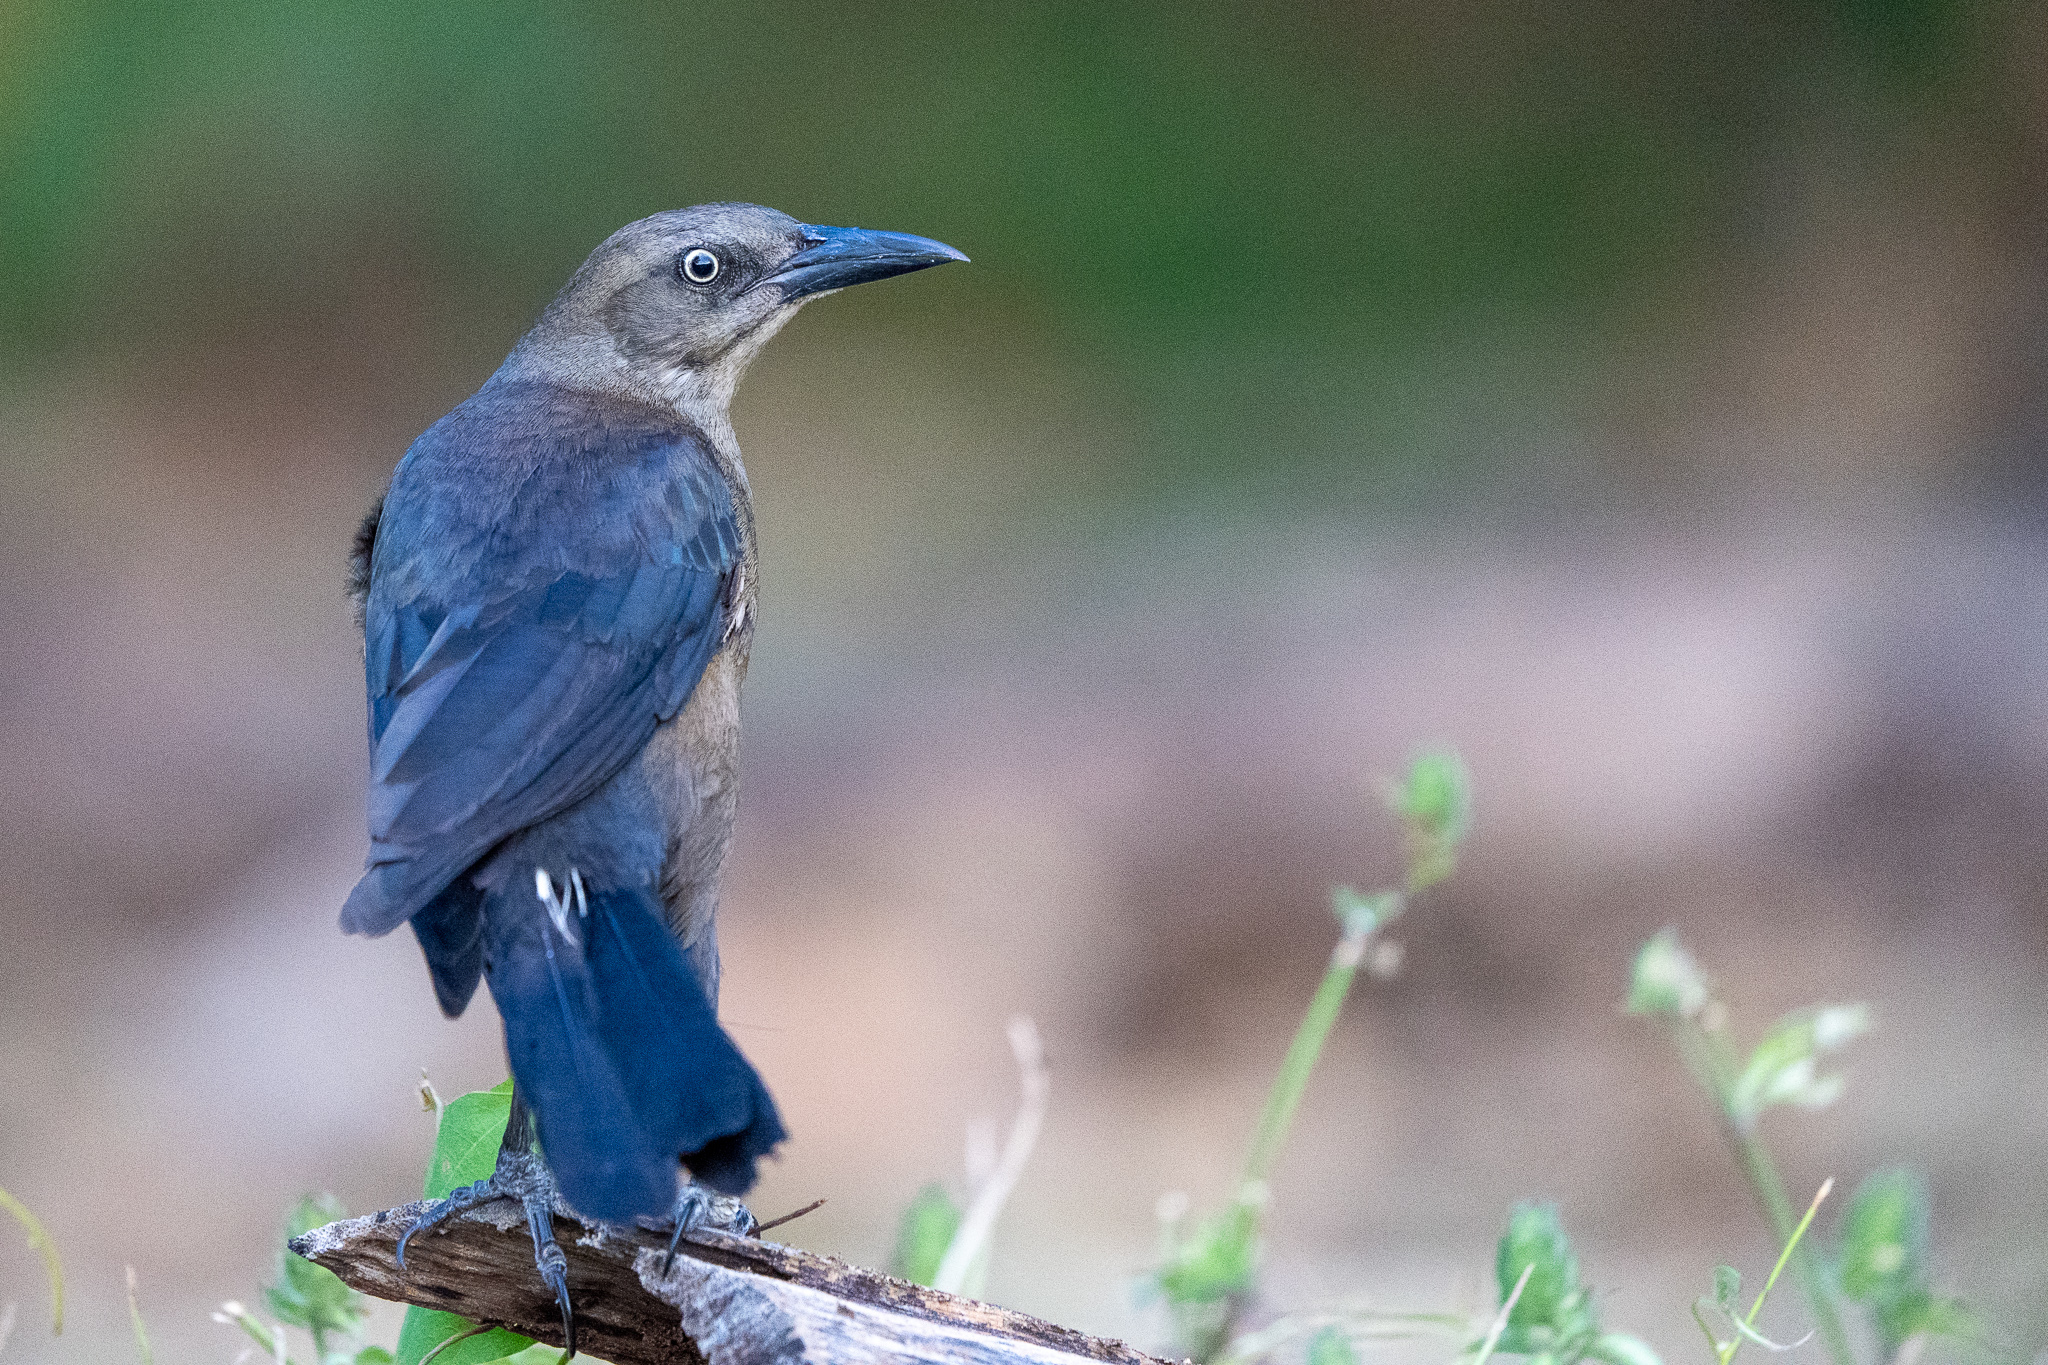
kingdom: Animalia
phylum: Chordata
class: Aves
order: Passeriformes
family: Icteridae
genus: Quiscalus
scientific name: Quiscalus mexicanus
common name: Great-tailed grackle
